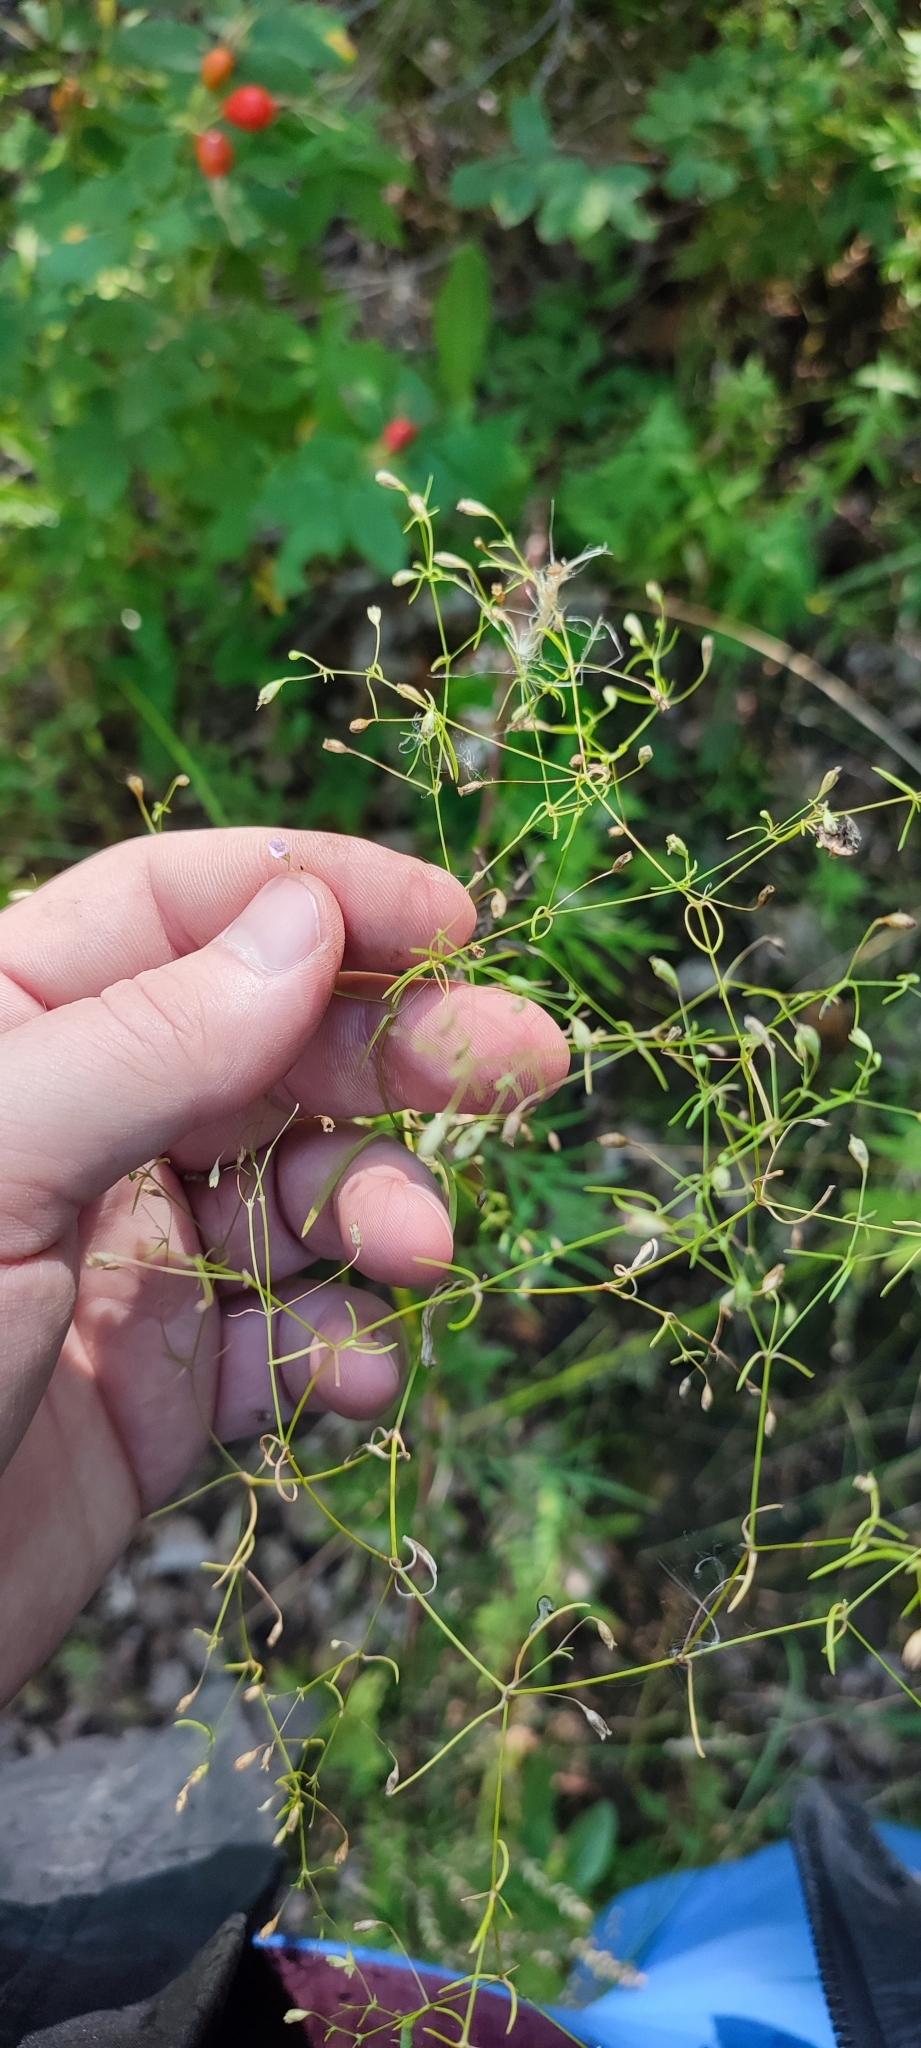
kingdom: Plantae
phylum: Tracheophyta
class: Magnoliopsida
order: Caryophyllales
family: Caryophyllaceae
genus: Psammophiliella
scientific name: Psammophiliella muralis
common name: Cushion baby's-breath
